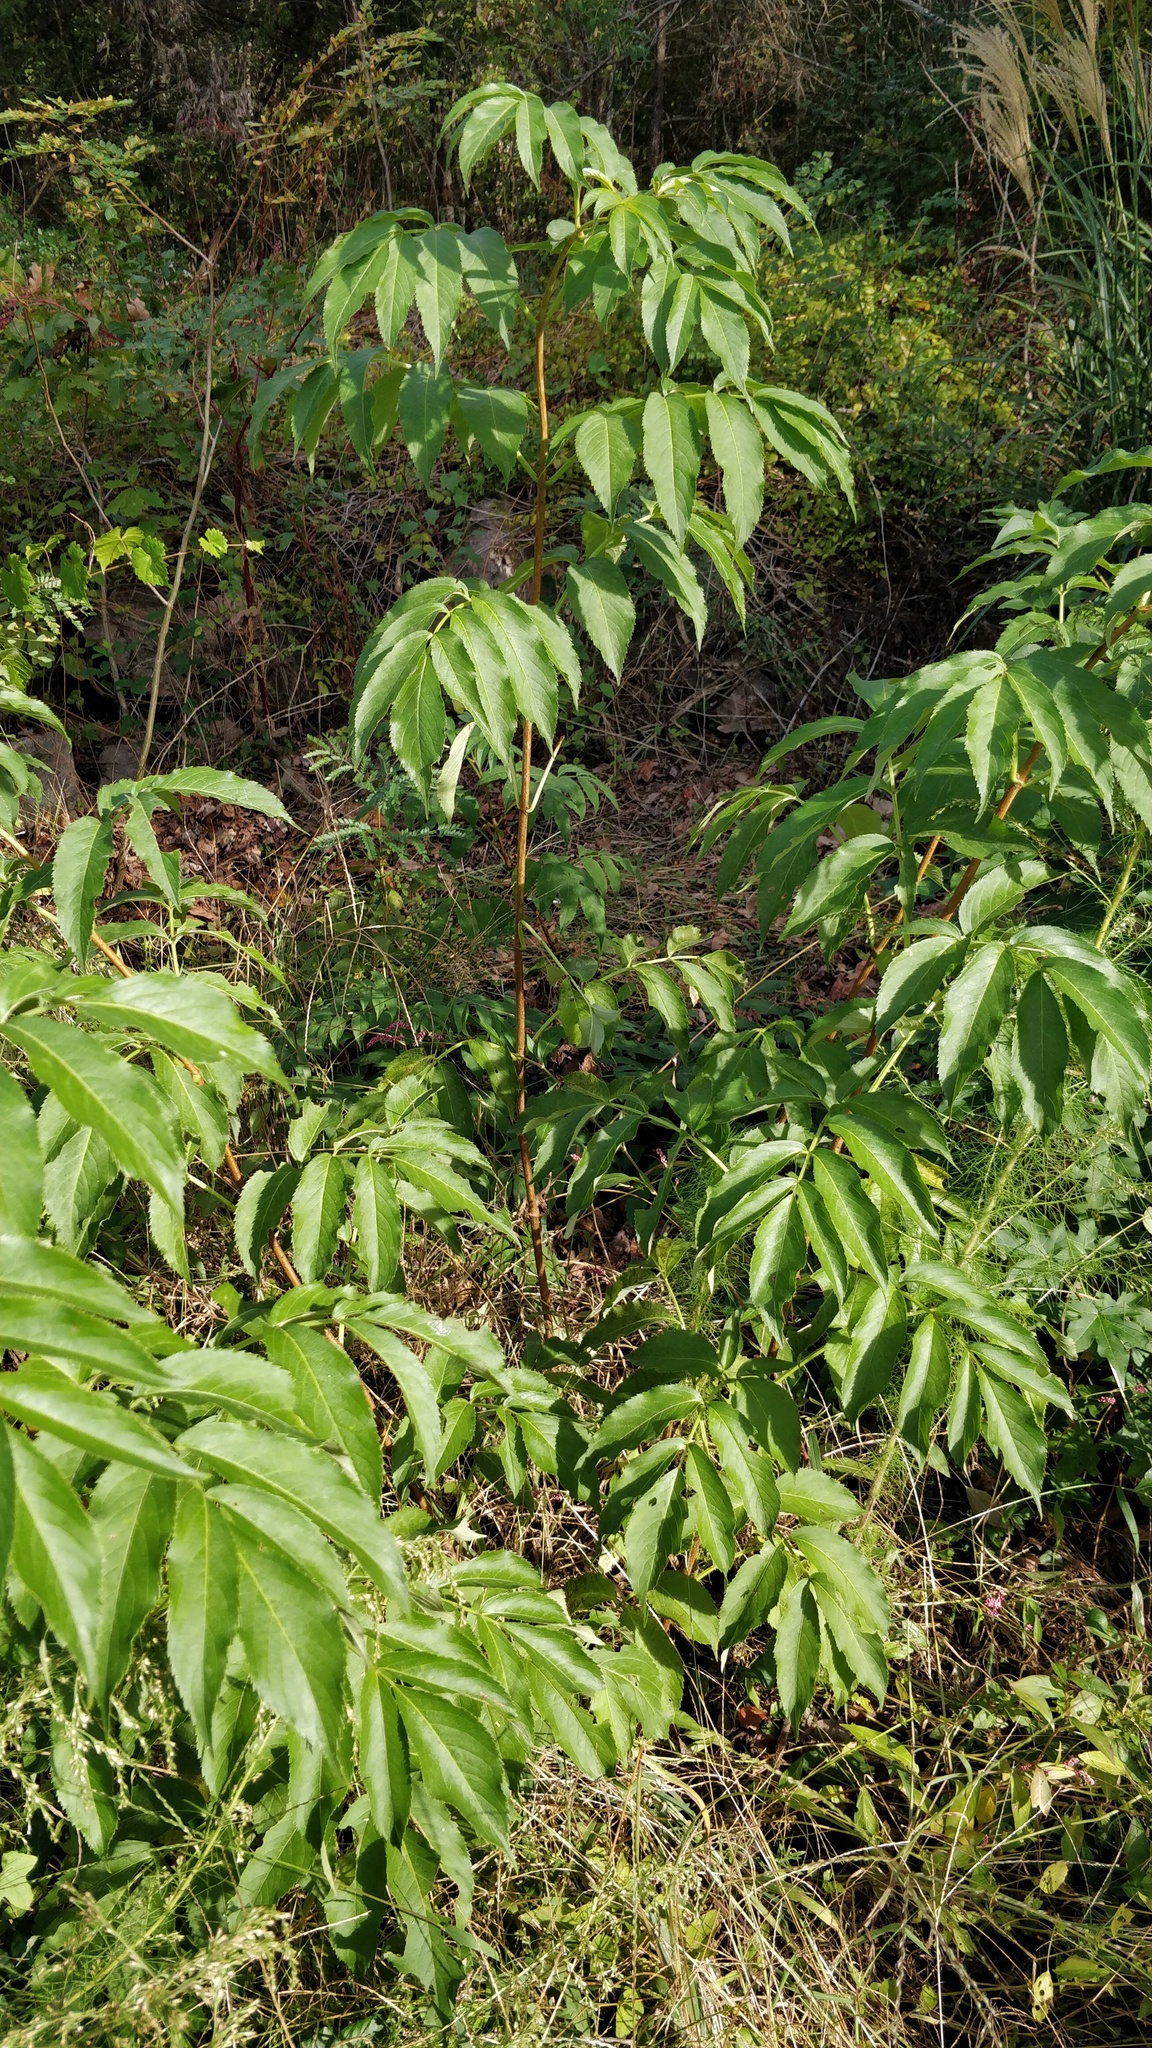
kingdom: Plantae
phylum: Tracheophyta
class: Magnoliopsida
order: Dipsacales
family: Viburnaceae
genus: Sambucus
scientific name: Sambucus canadensis
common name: American elder
